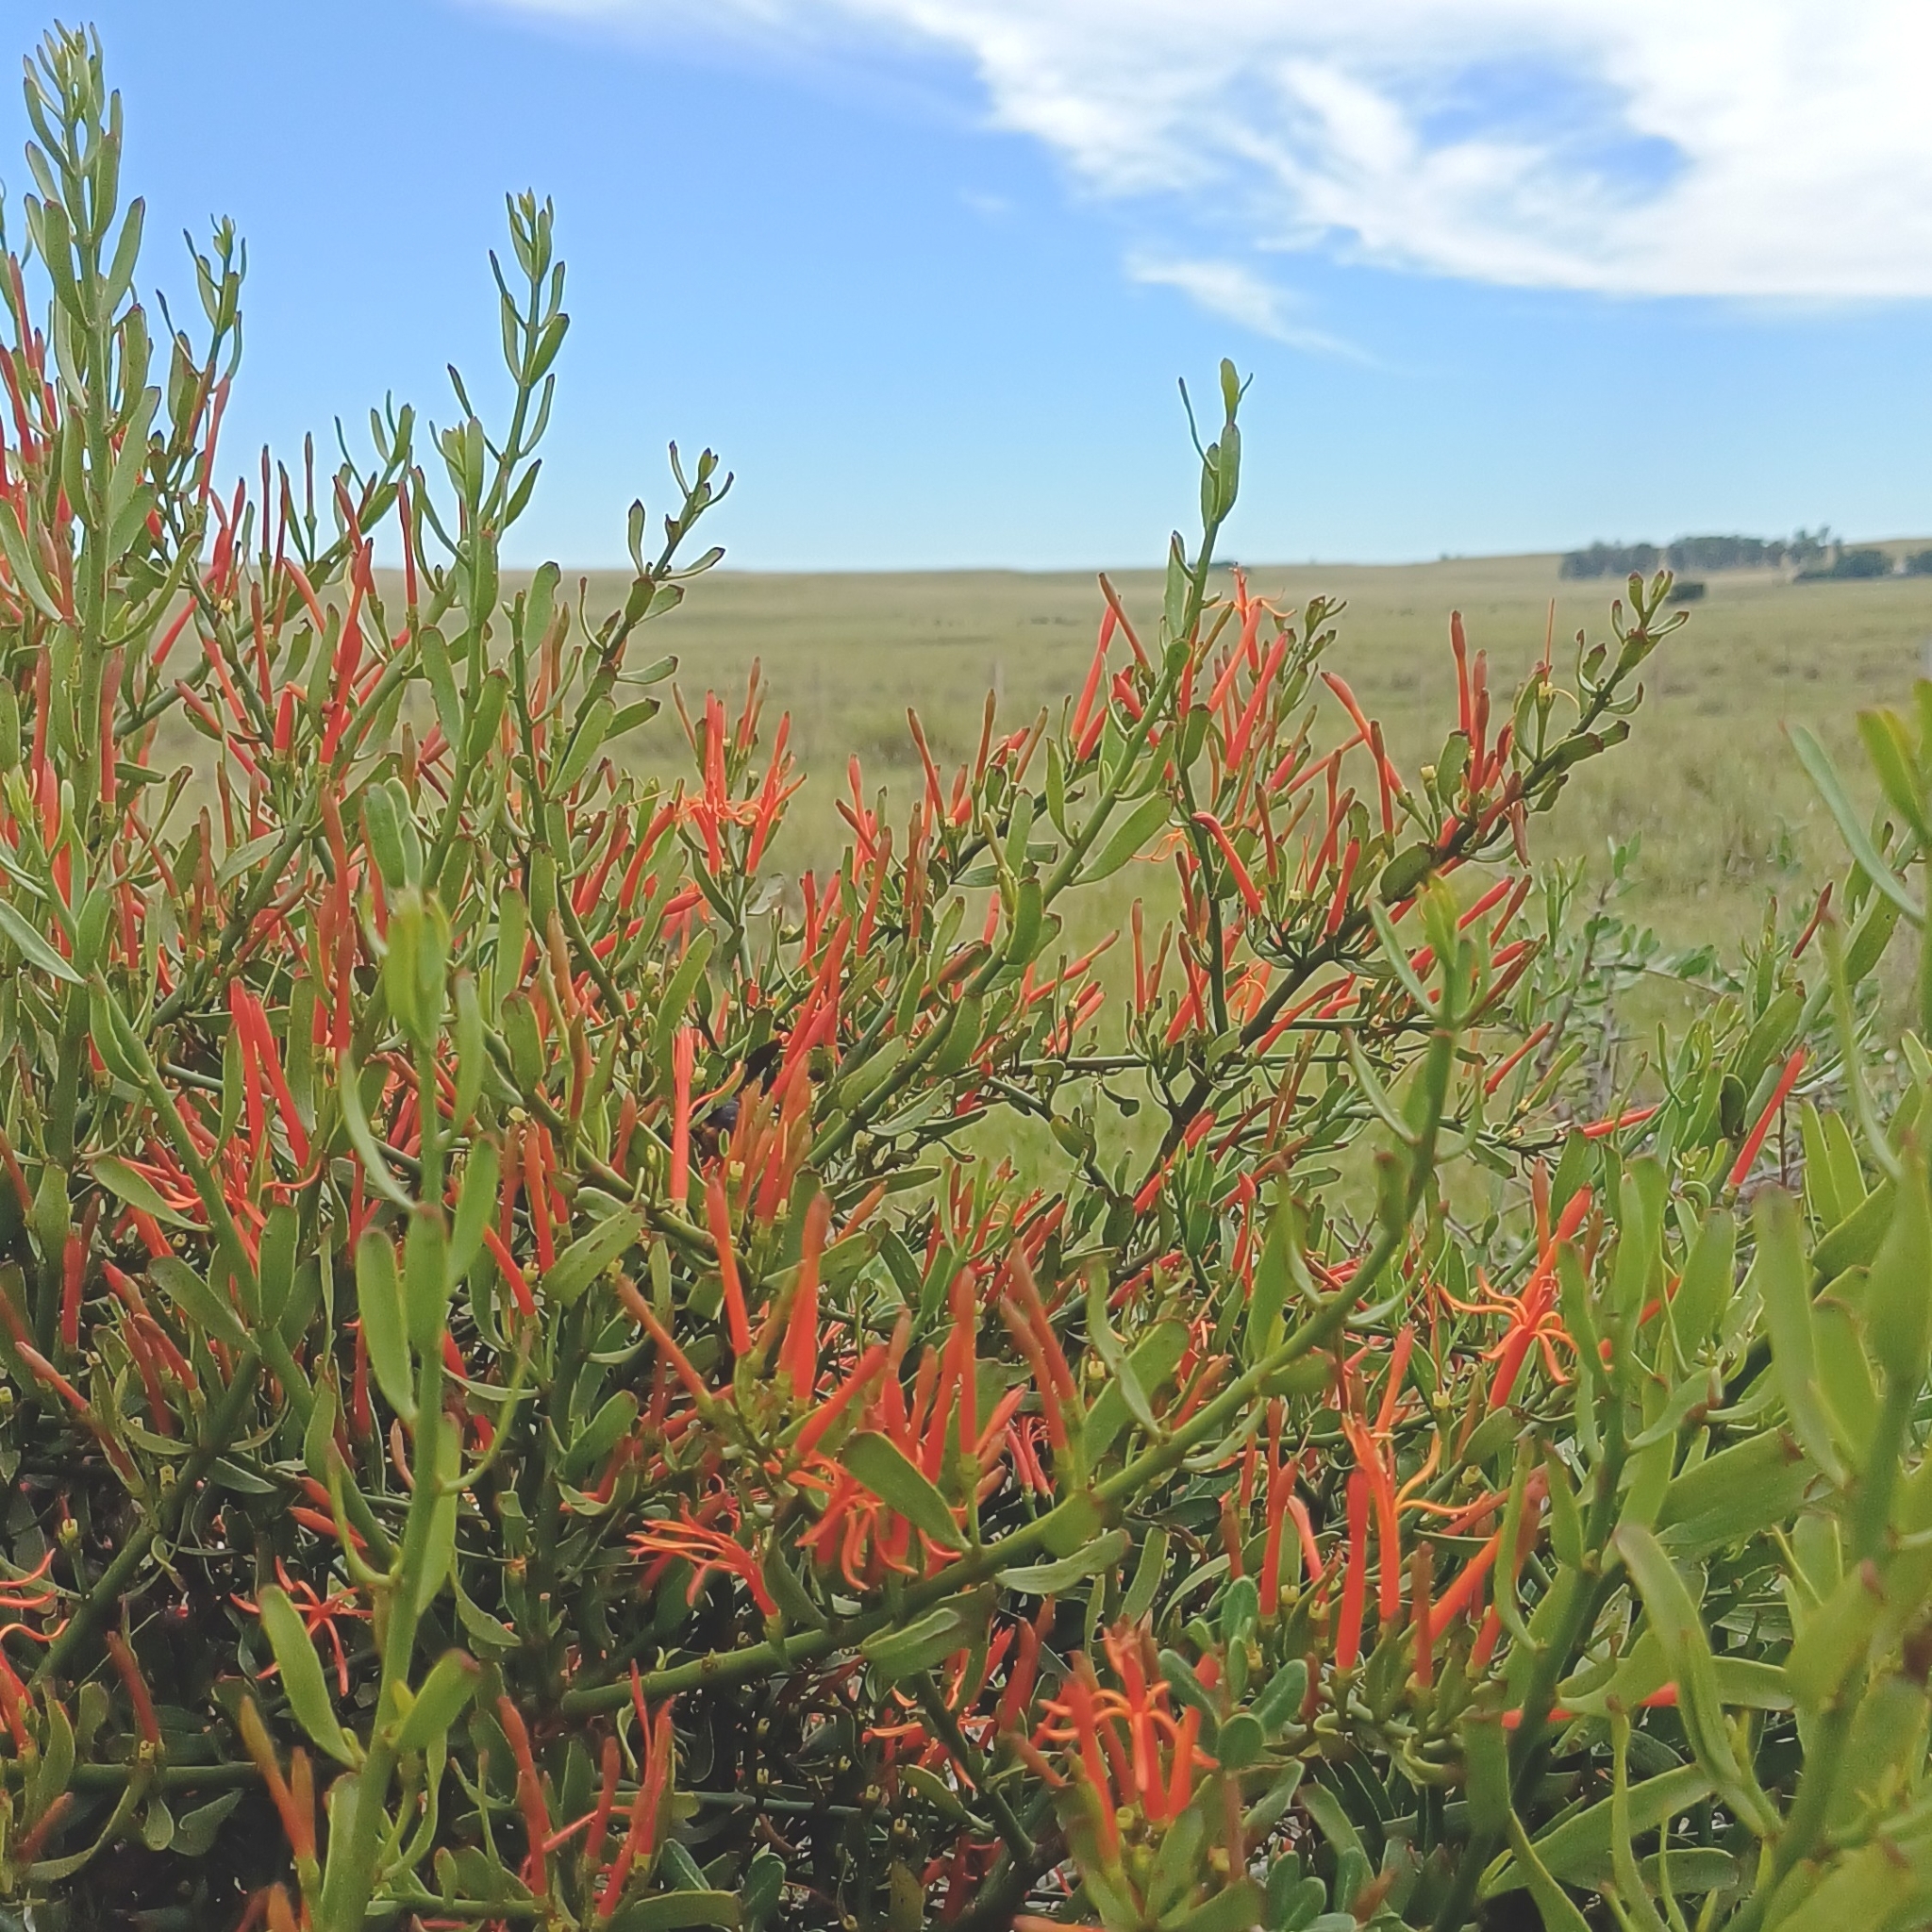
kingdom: Plantae
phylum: Tracheophyta
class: Magnoliopsida
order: Santalales
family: Loranthaceae
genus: Ligaria
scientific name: Ligaria cuneifolia
